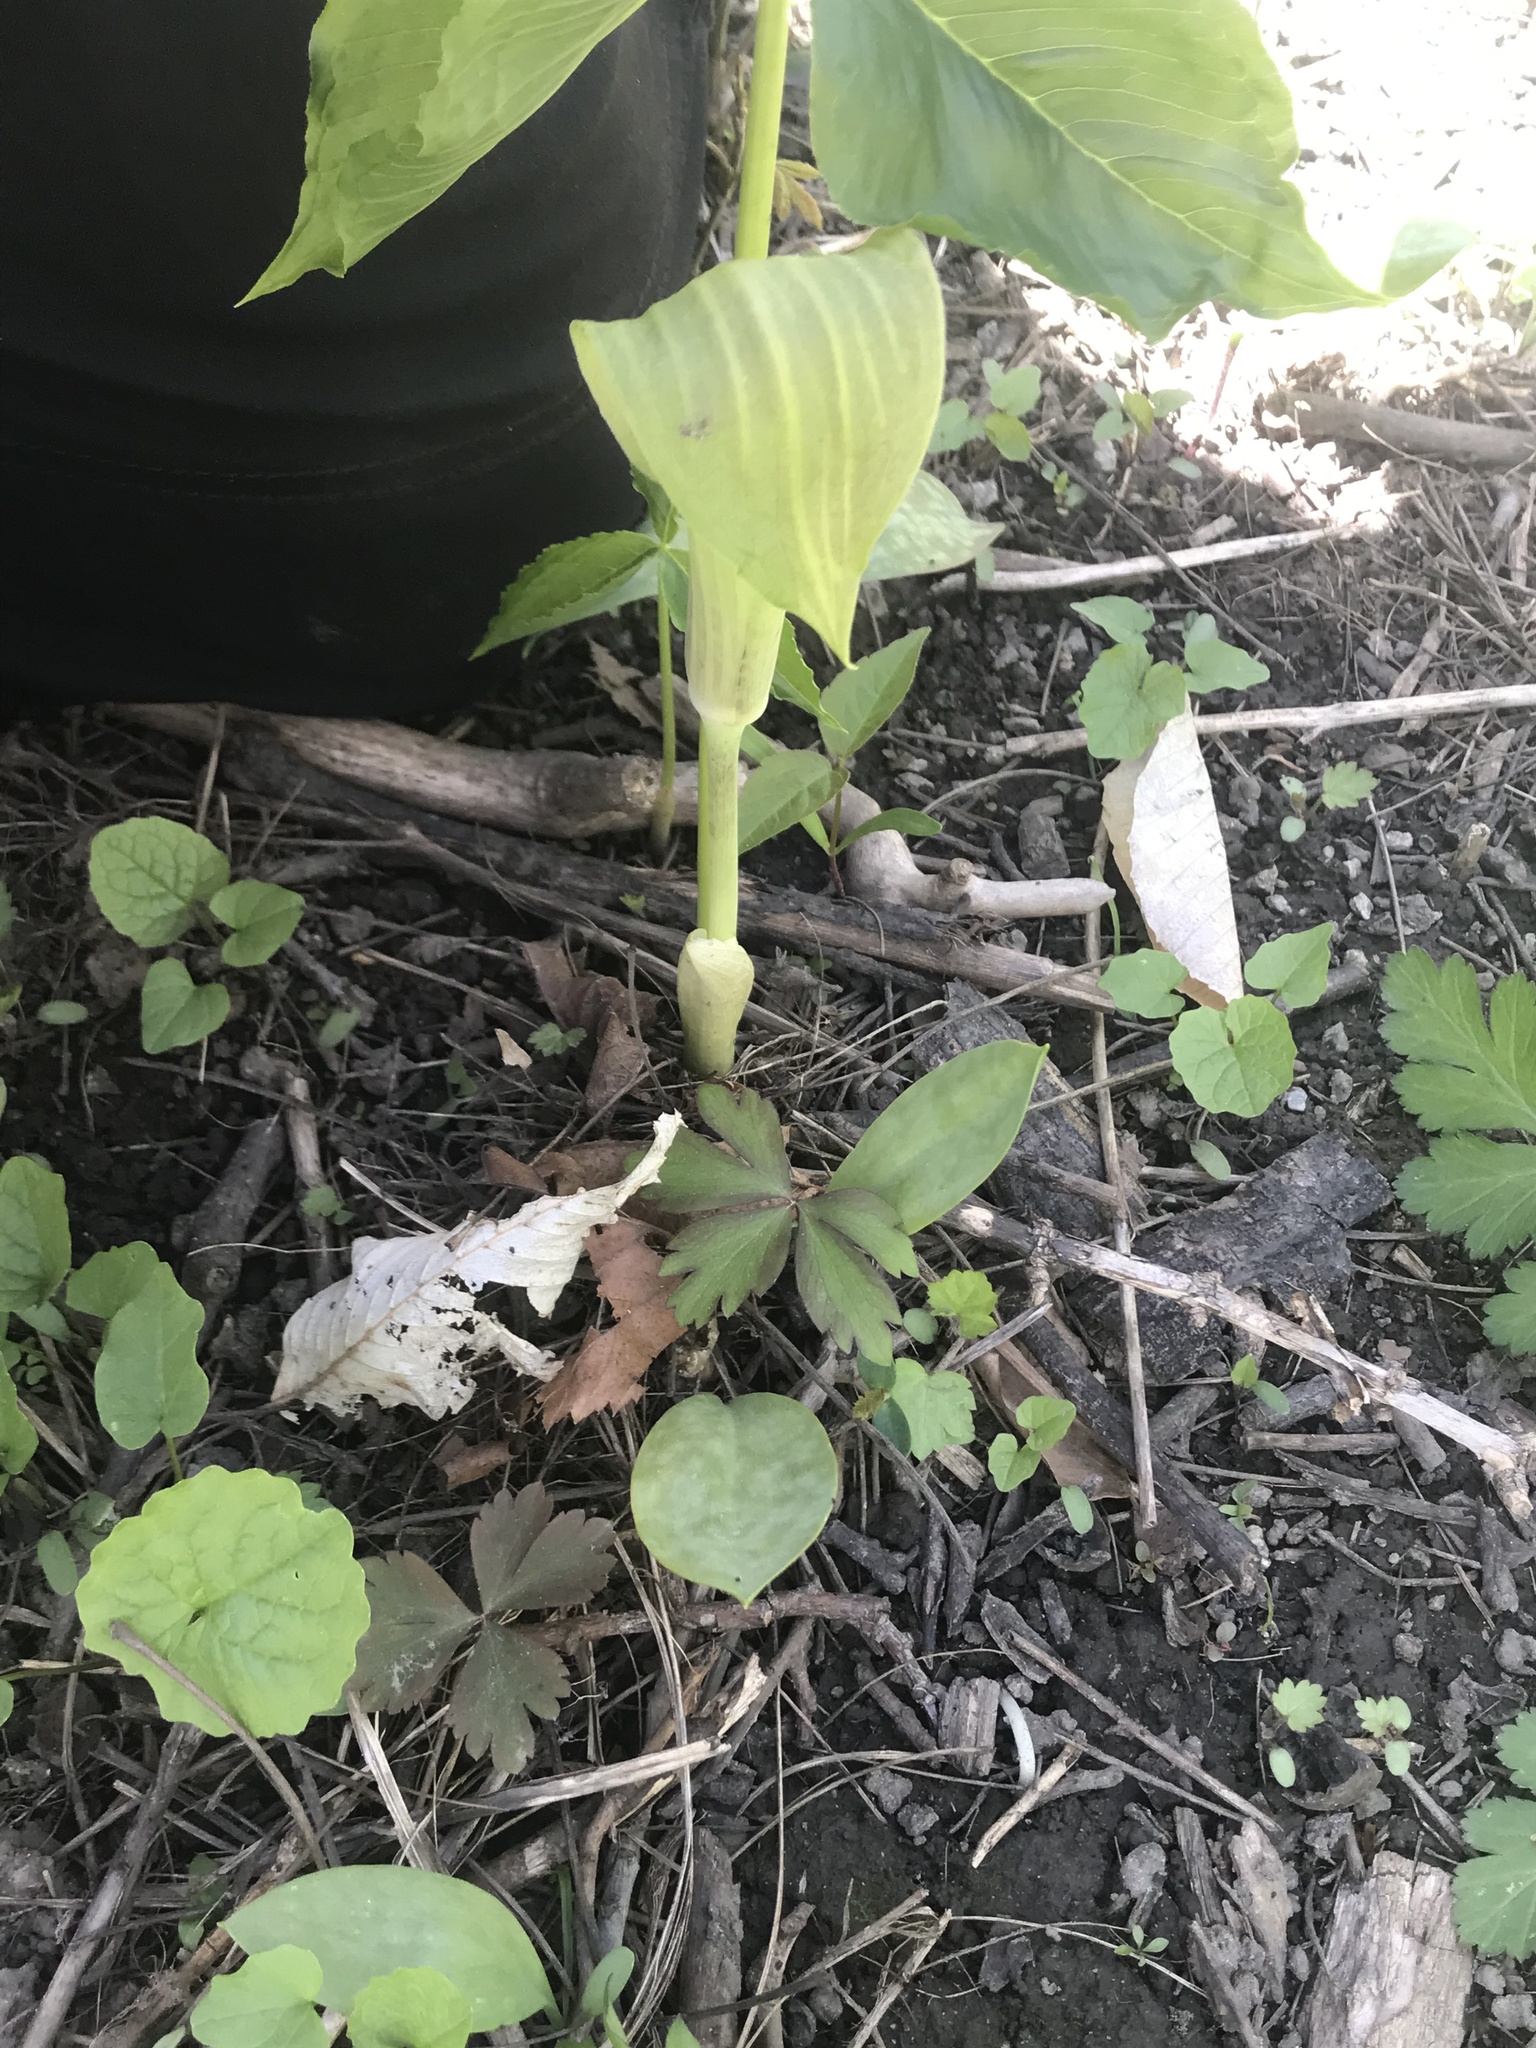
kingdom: Plantae
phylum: Tracheophyta
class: Liliopsida
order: Alismatales
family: Araceae
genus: Arisaema
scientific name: Arisaema triphyllum
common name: Jack-in-the-pulpit
